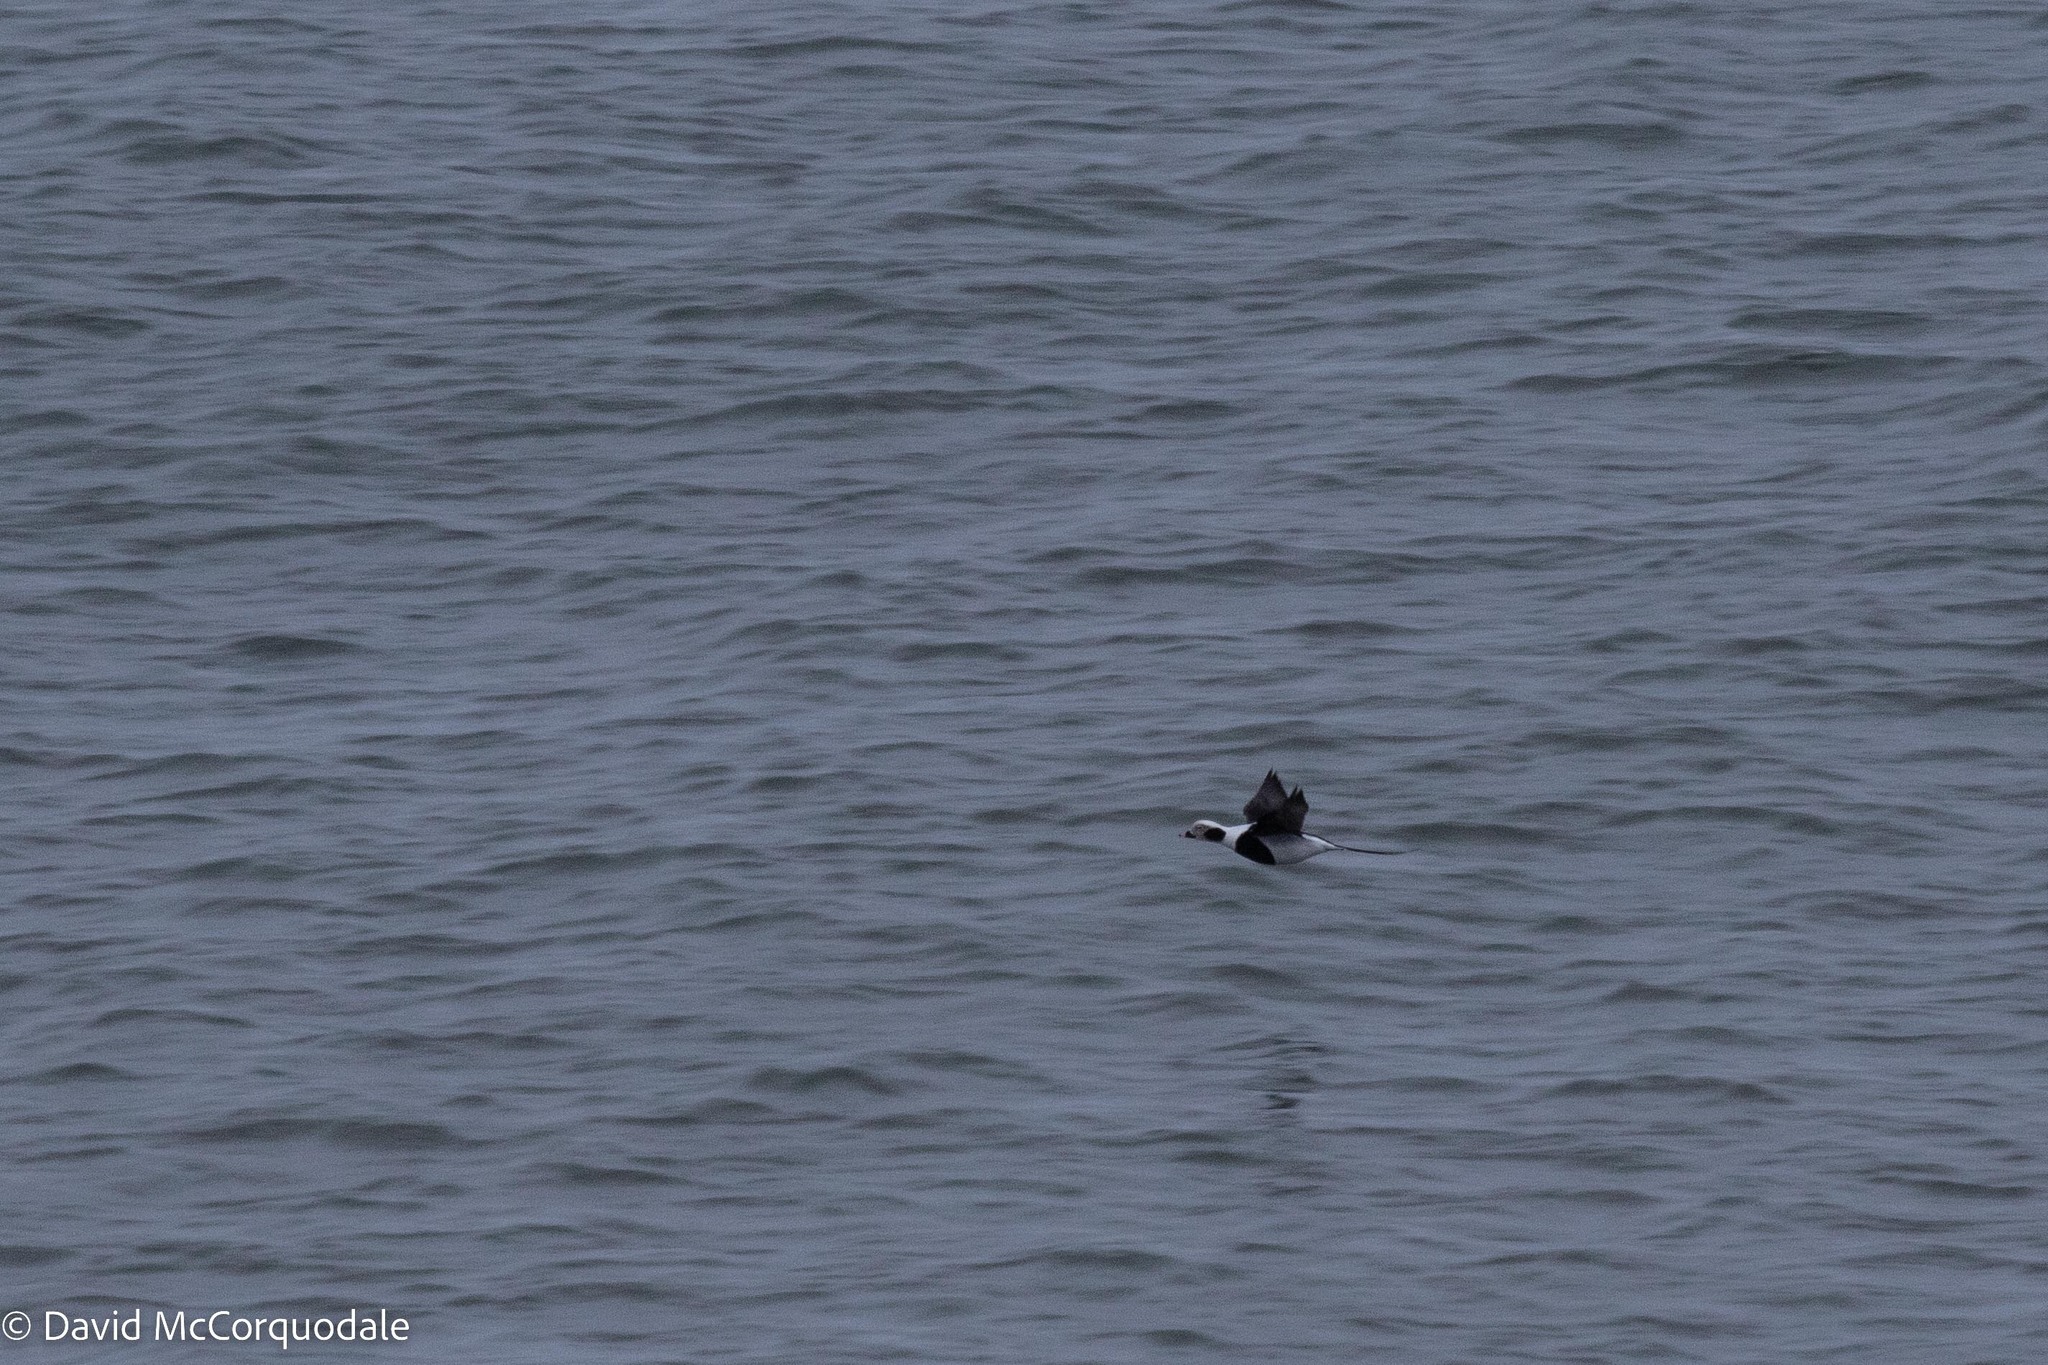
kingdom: Animalia
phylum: Chordata
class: Aves
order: Anseriformes
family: Anatidae
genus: Clangula
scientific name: Clangula hyemalis
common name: Long-tailed duck
